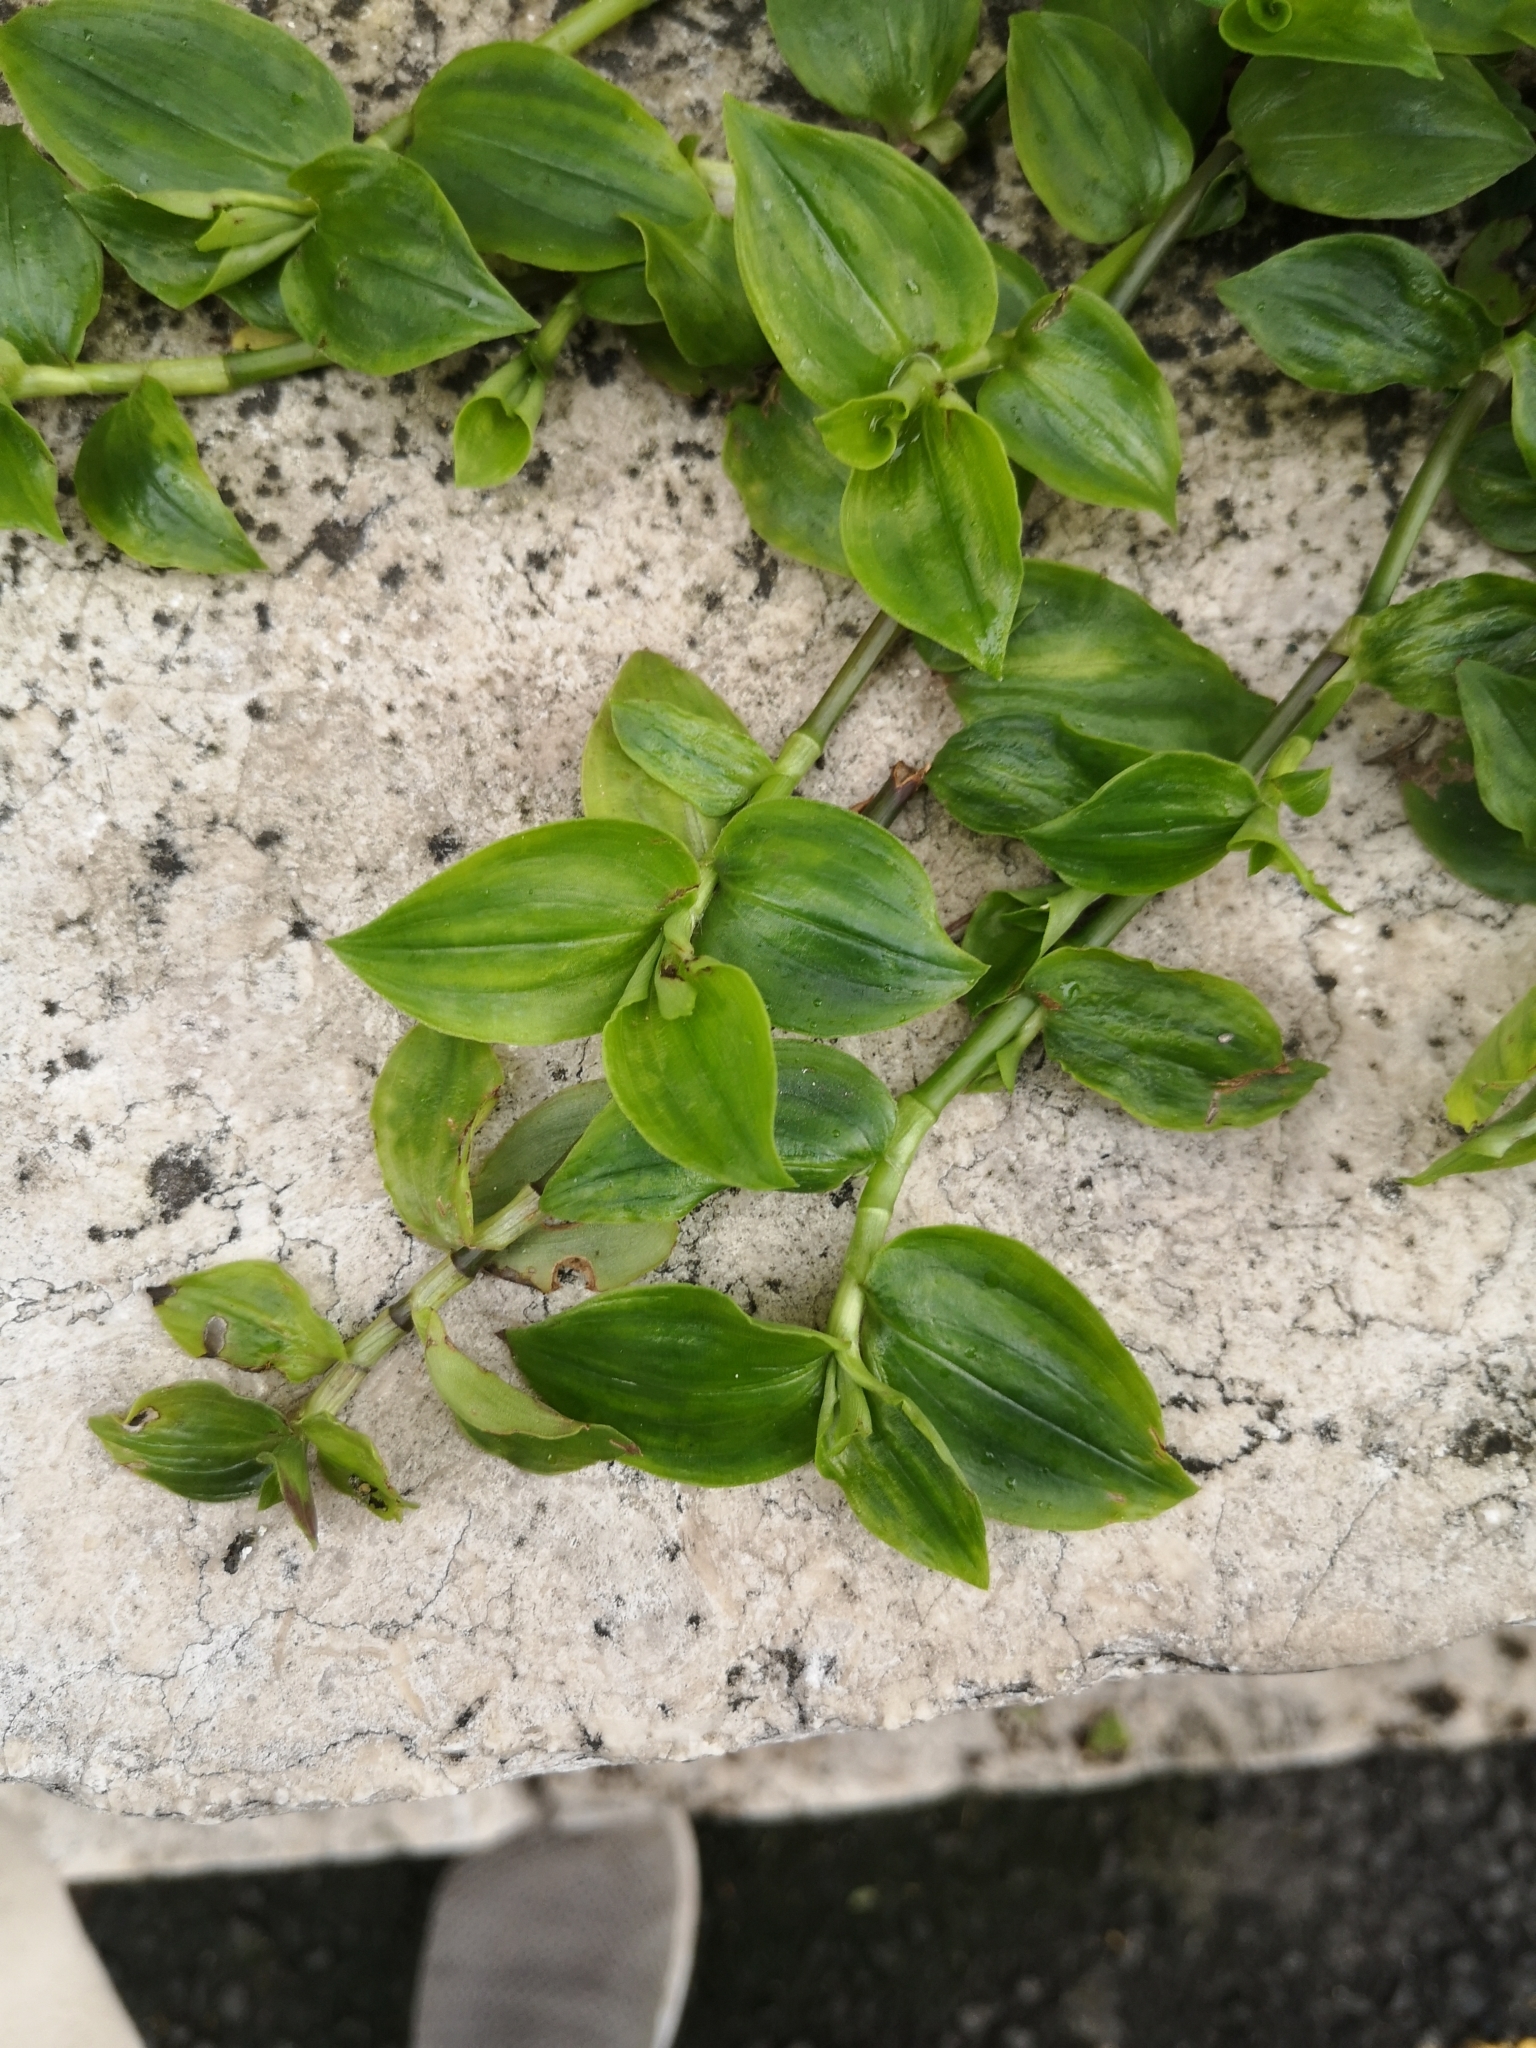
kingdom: Plantae
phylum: Tracheophyta
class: Liliopsida
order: Commelinales
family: Commelinaceae
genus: Tradescantia
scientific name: Tradescantia fluminensis
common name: Wandering-jew
